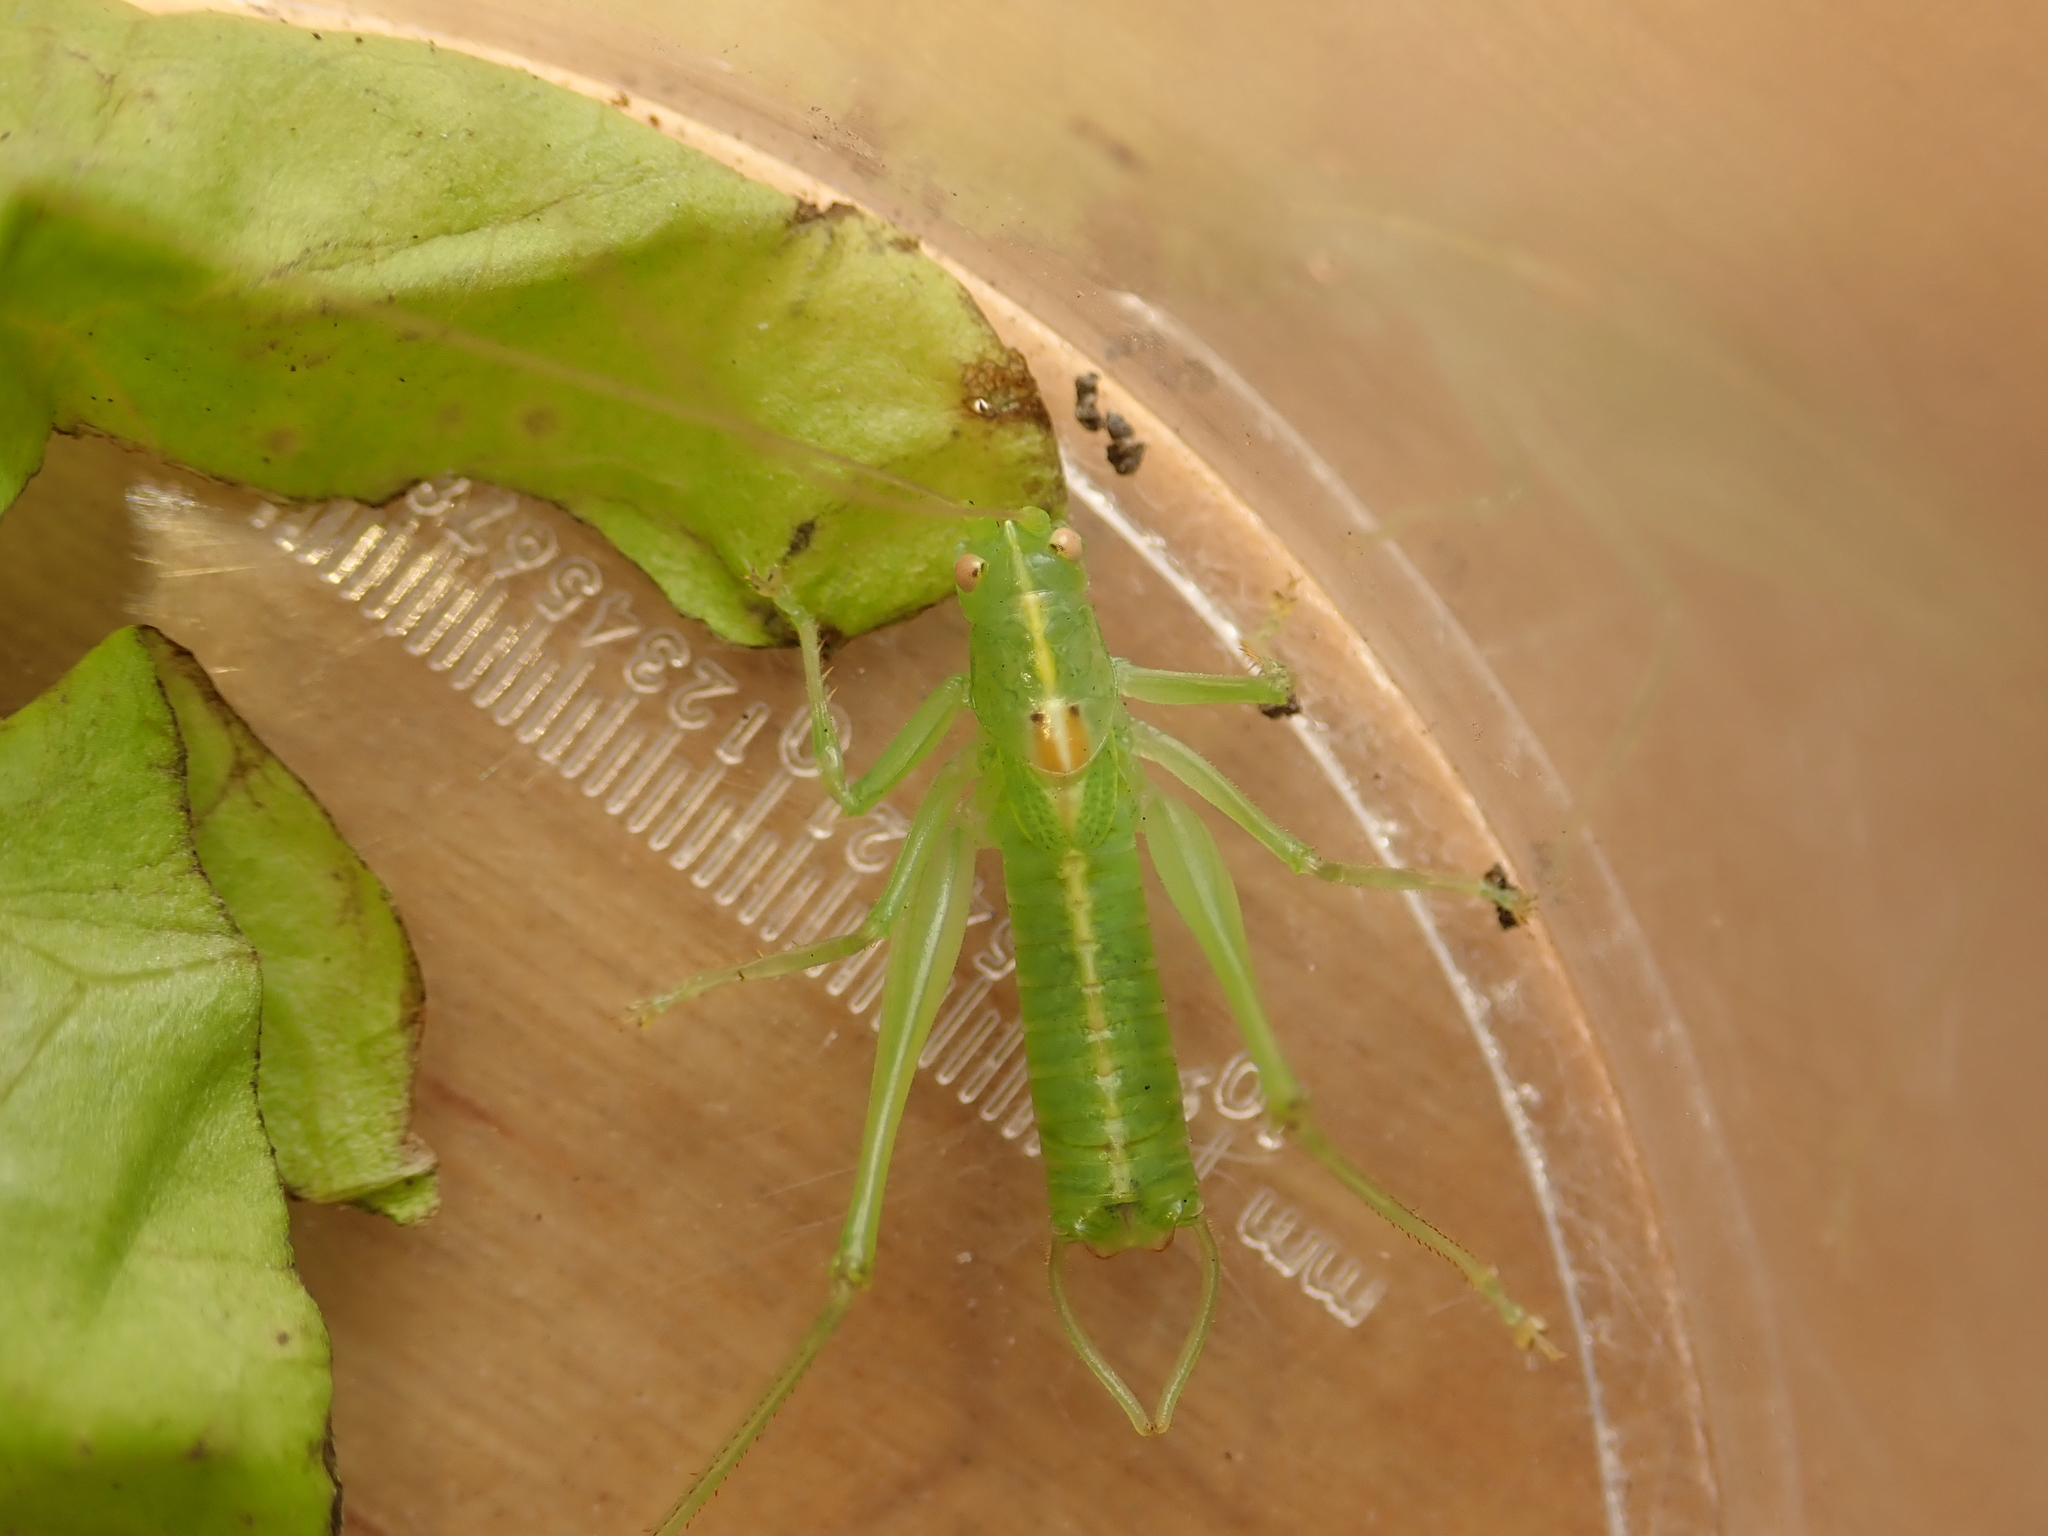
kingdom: Animalia
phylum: Arthropoda
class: Insecta
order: Orthoptera
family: Tettigoniidae
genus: Meconema
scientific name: Meconema meridionale
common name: Southern oak bush-cricket
